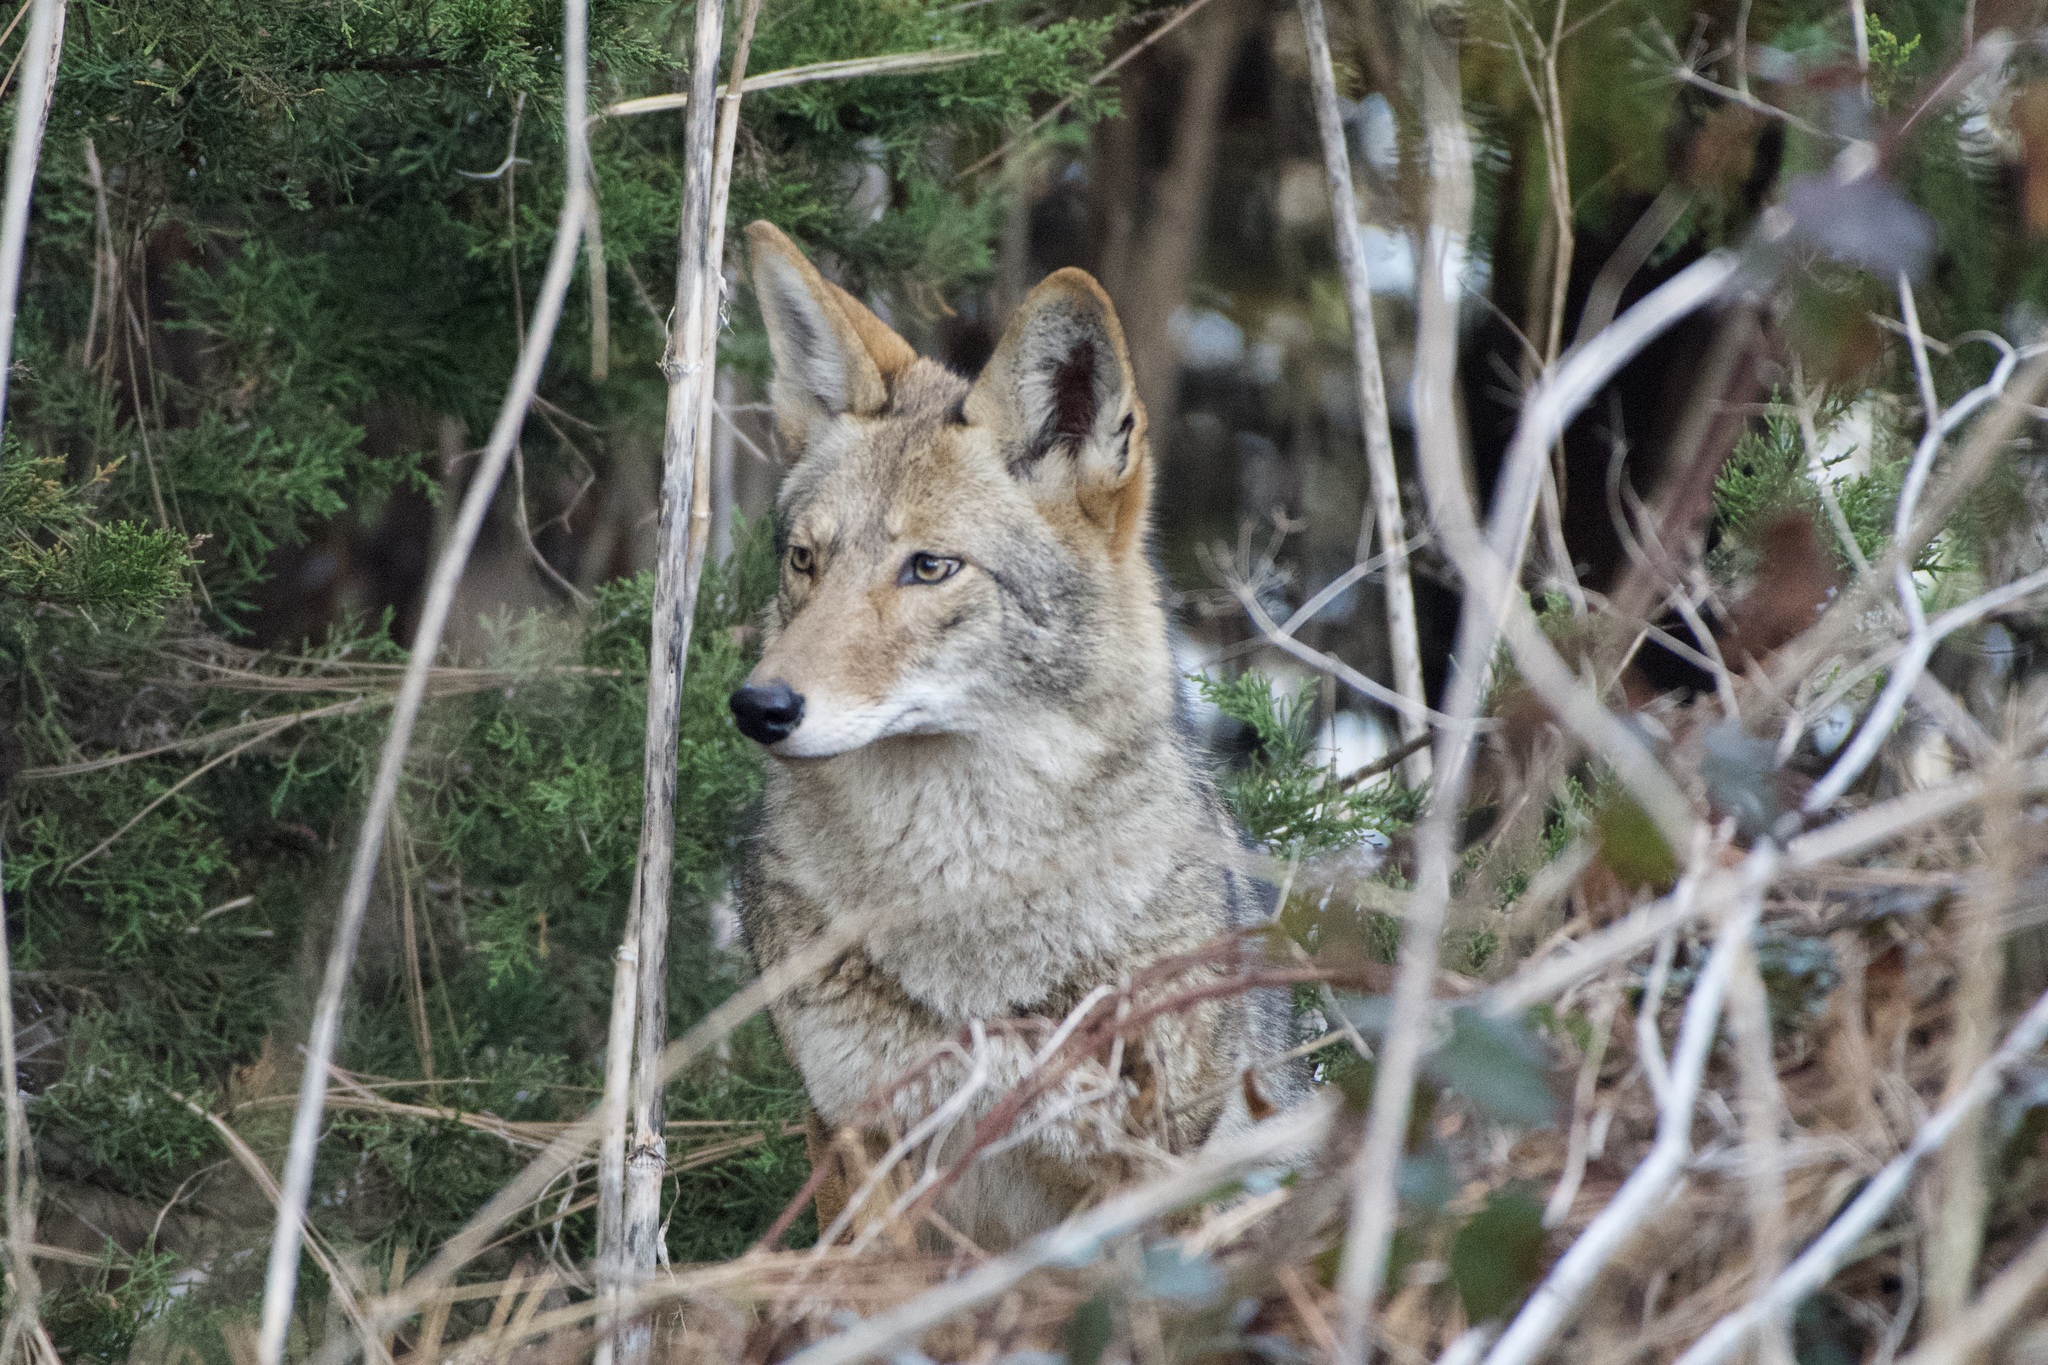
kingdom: Animalia
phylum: Chordata
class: Mammalia
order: Carnivora
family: Canidae
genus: Canis
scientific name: Canis latrans
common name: Coyote
